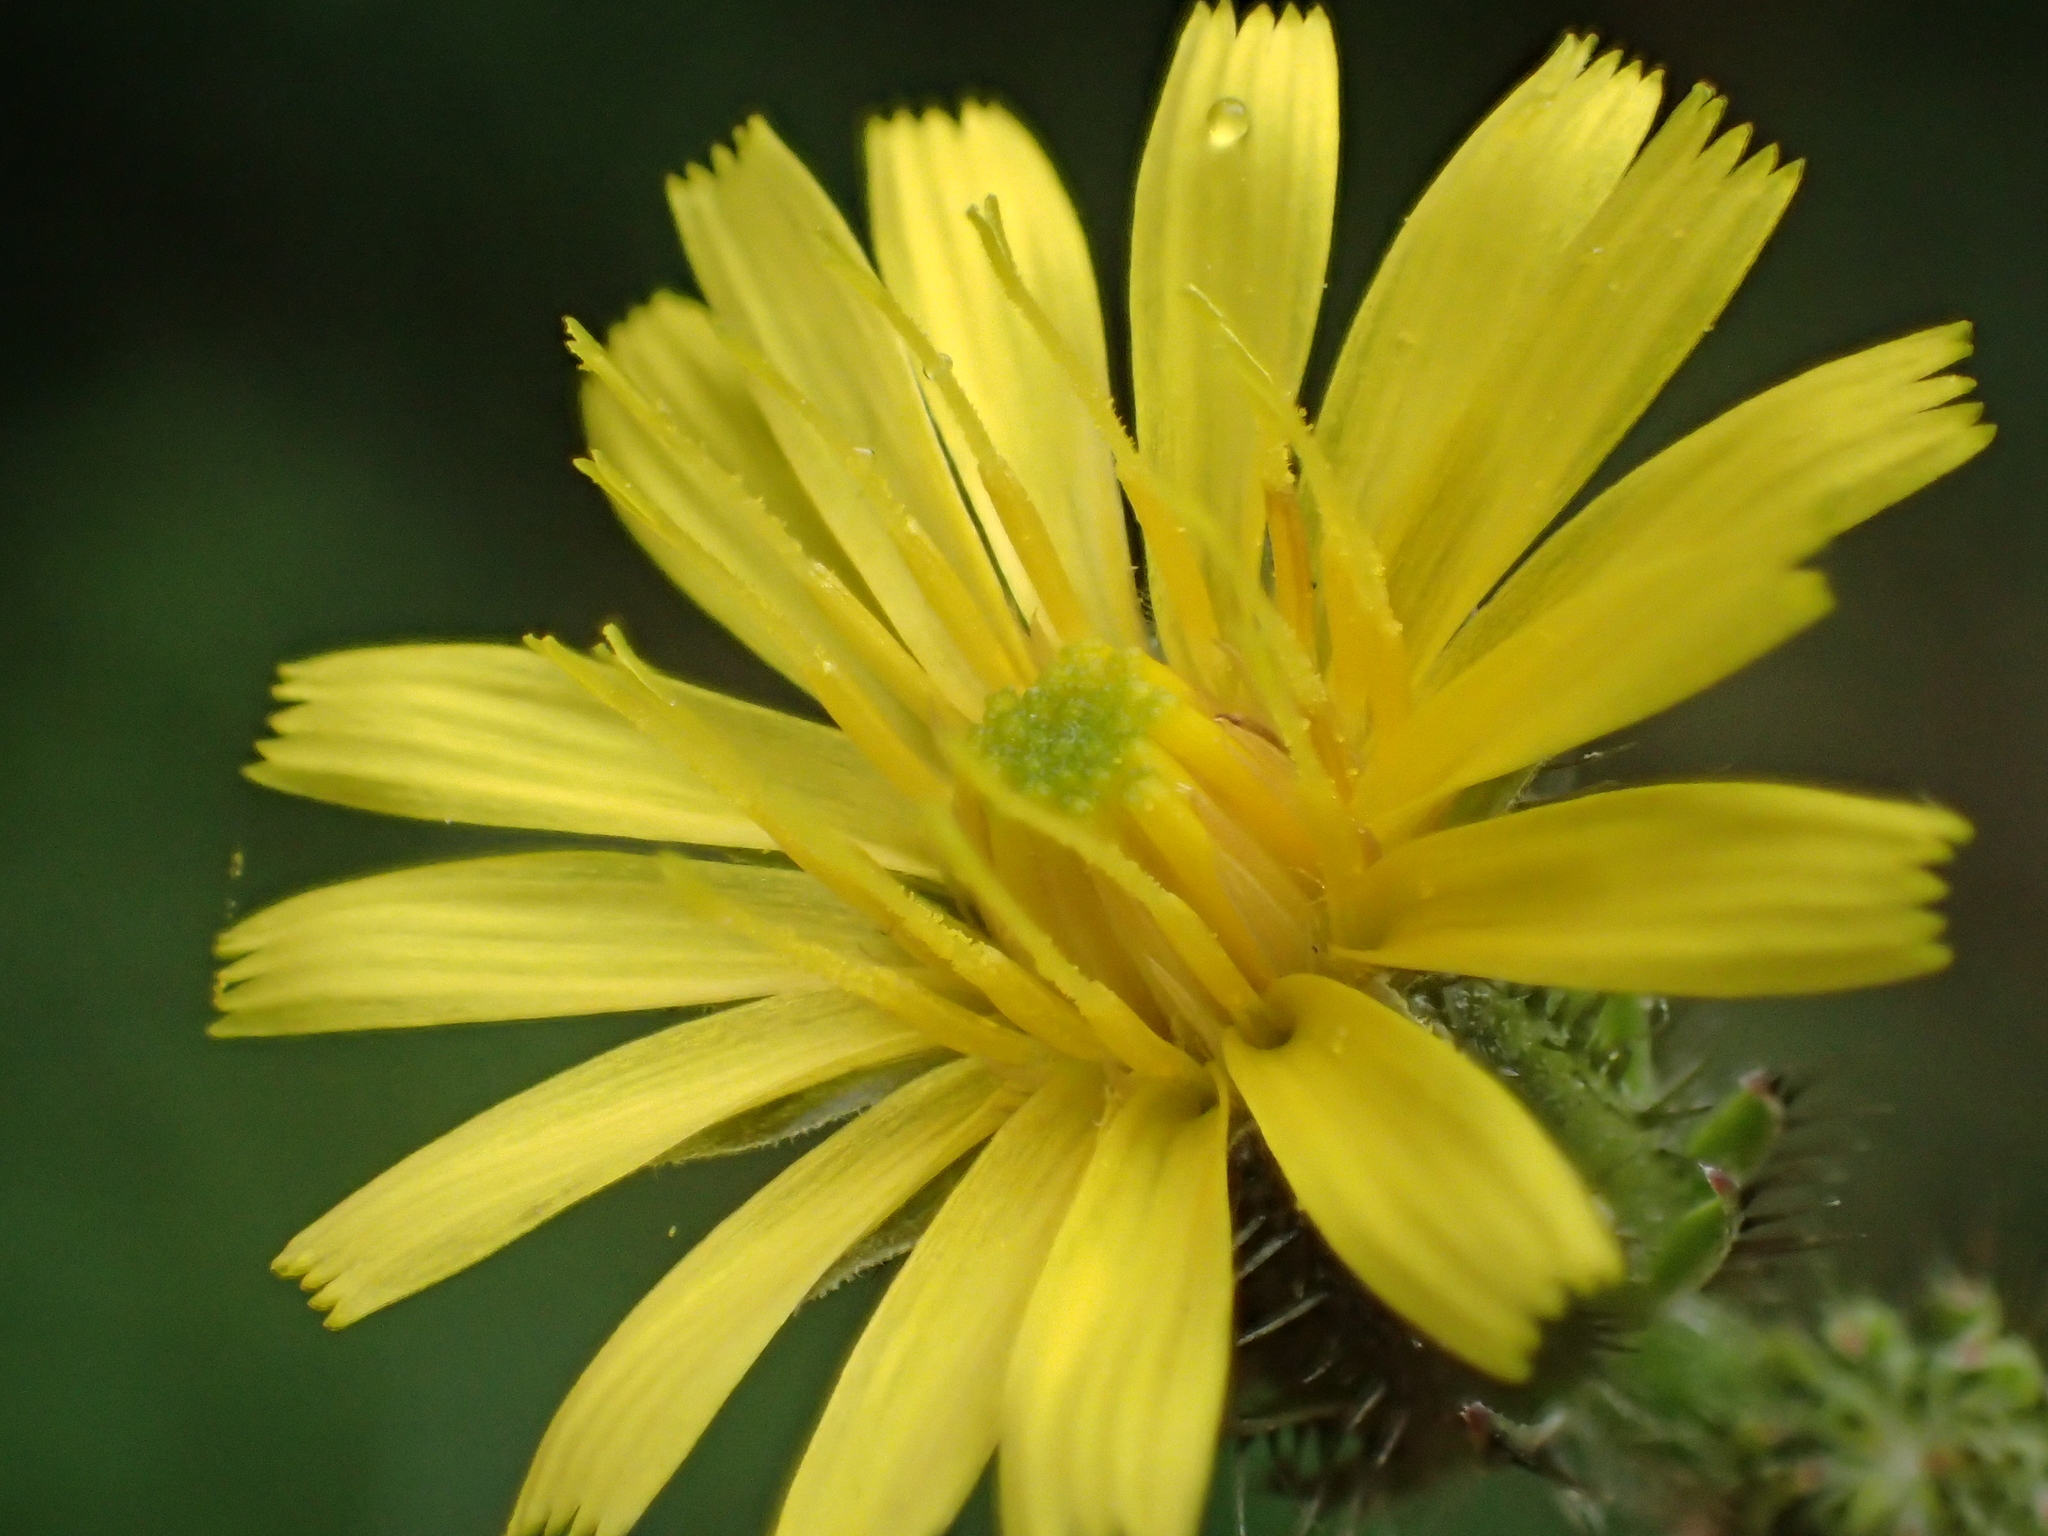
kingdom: Plantae
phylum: Tracheophyta
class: Magnoliopsida
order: Asterales
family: Asteraceae
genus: Picris
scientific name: Picris angustifolia
